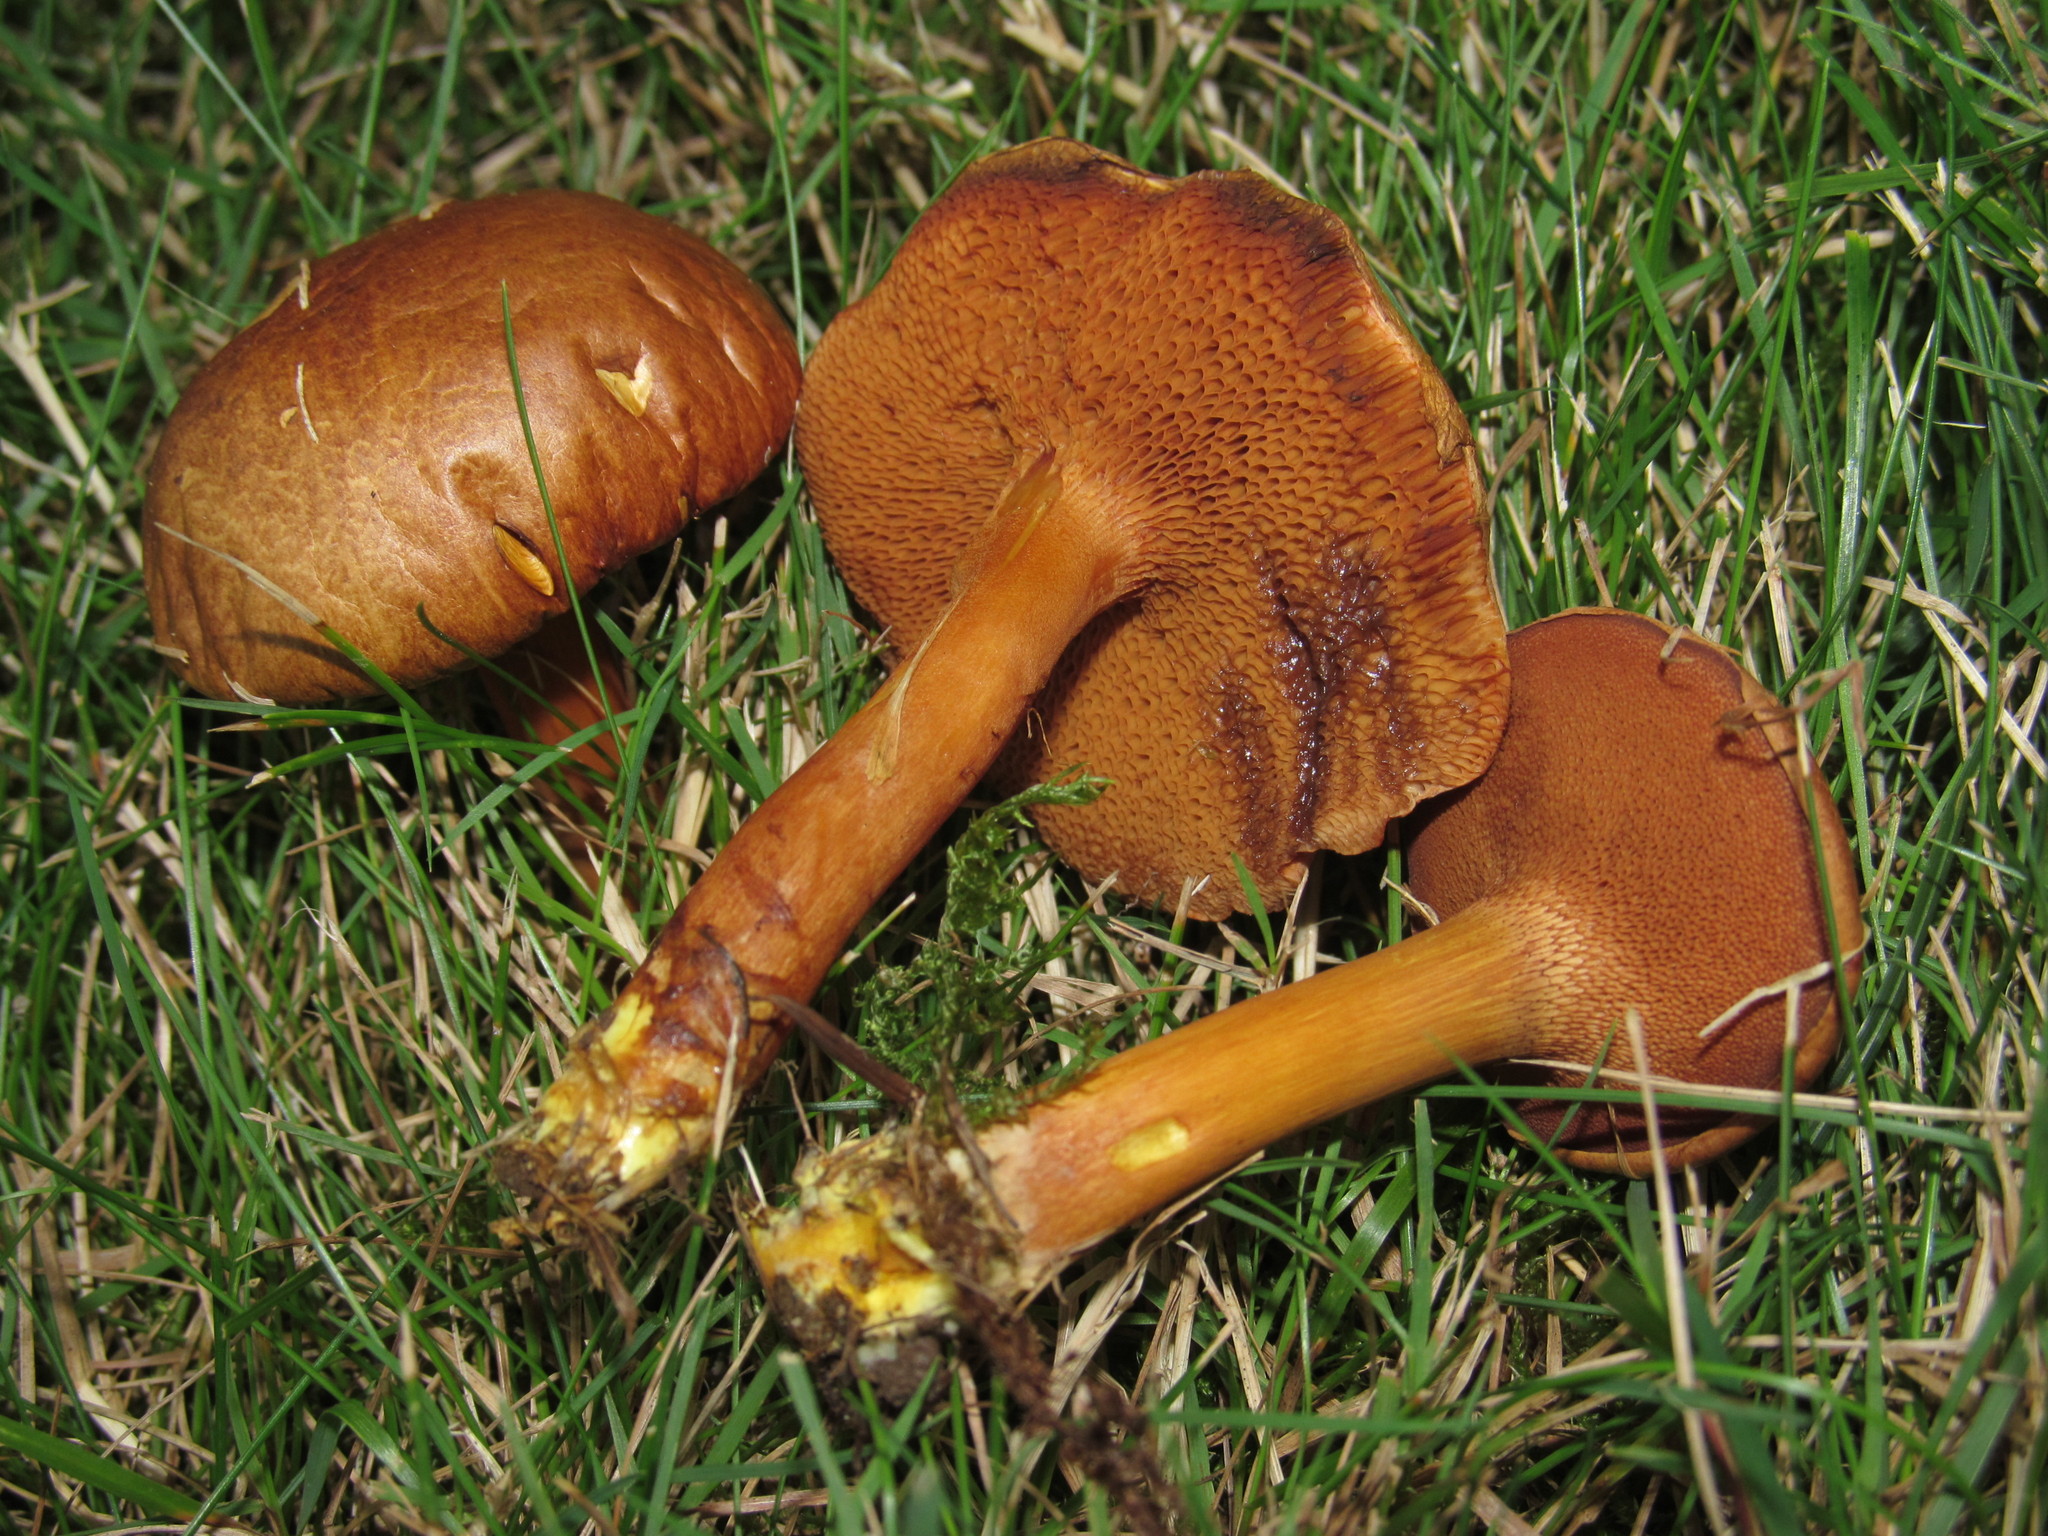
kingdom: Fungi
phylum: Basidiomycota
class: Agaricomycetes
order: Boletales
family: Boletaceae
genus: Chalciporus
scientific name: Chalciporus piperatus
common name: Peppery bolete
